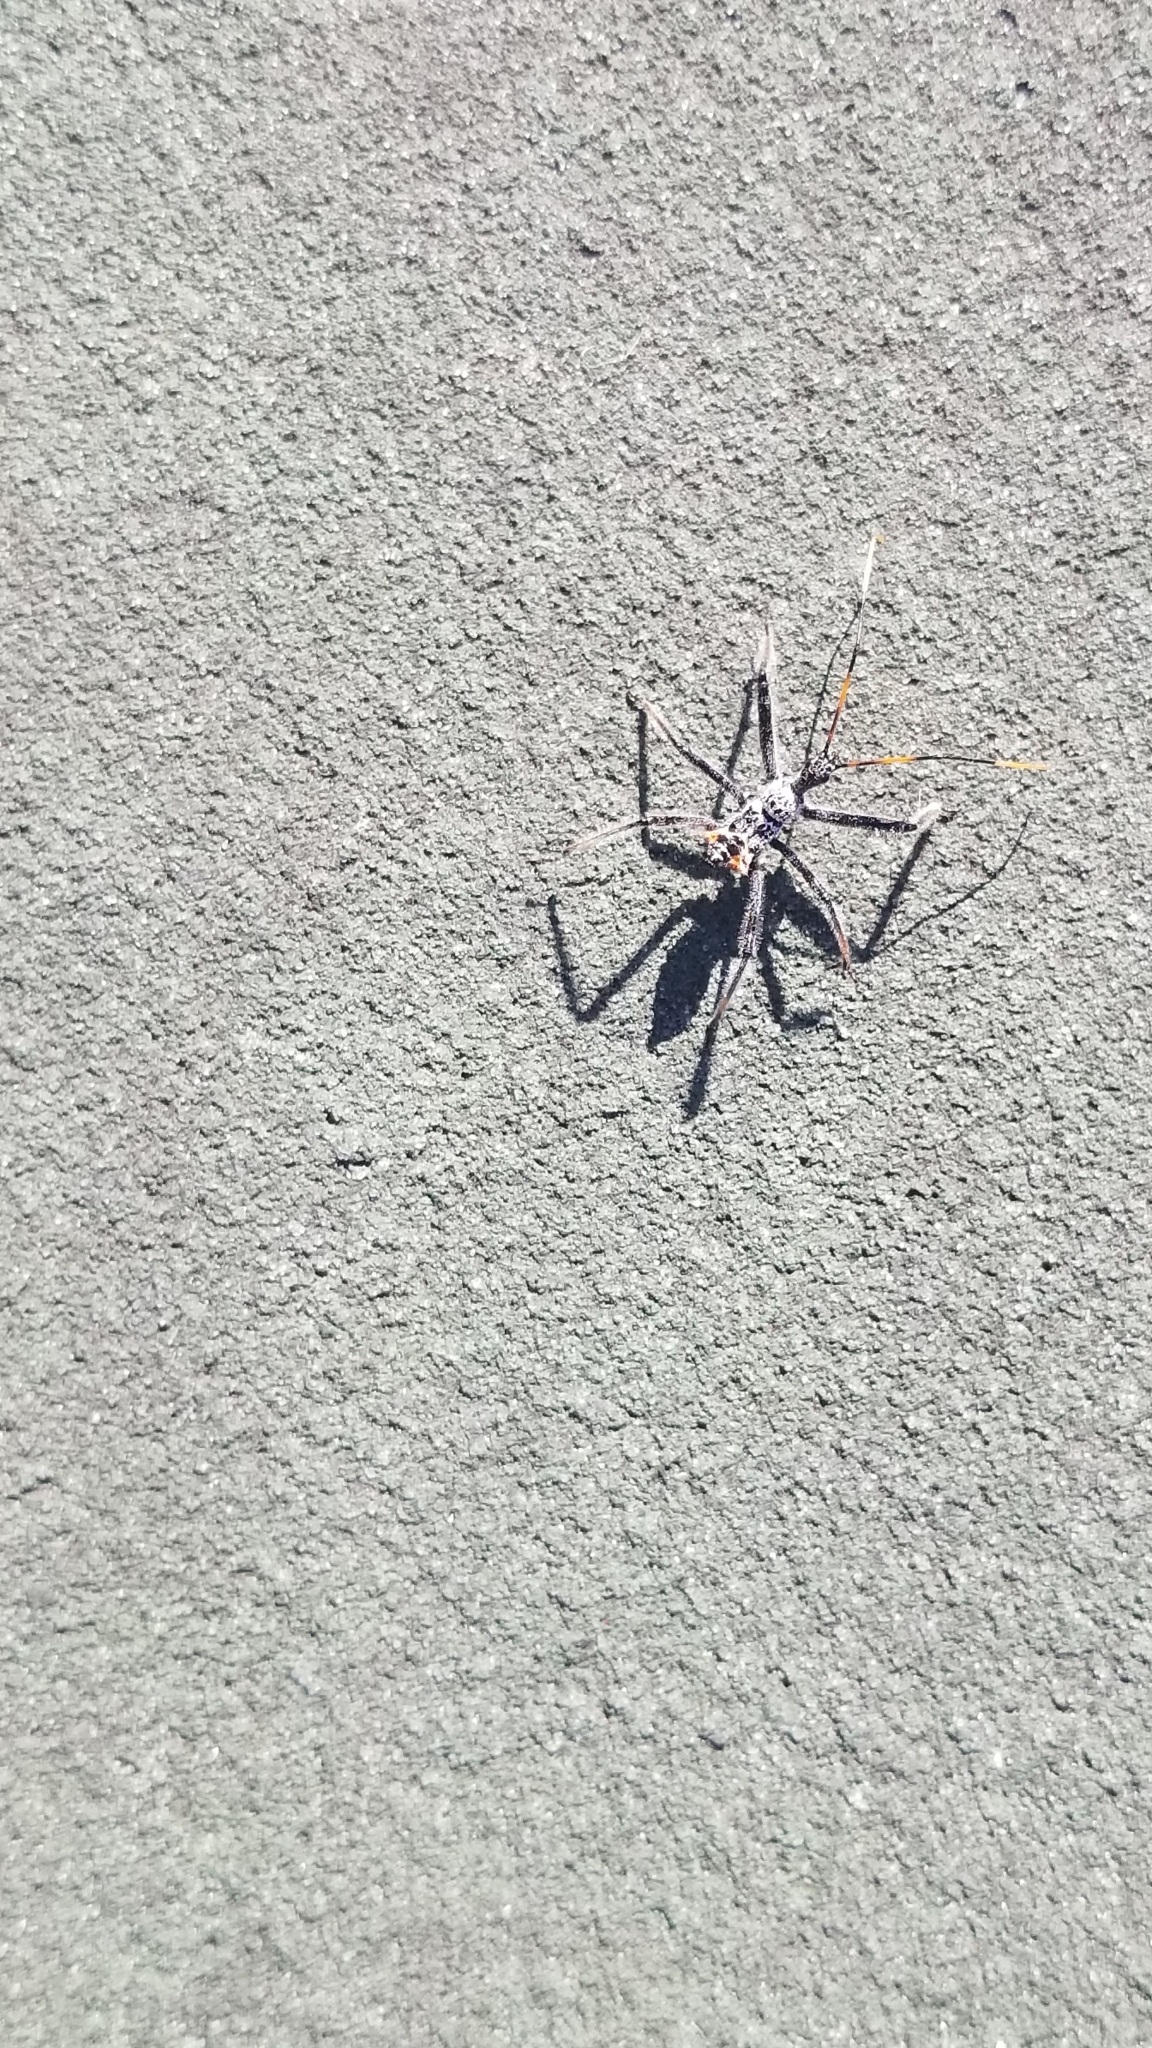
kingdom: Animalia
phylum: Arthropoda
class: Insecta
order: Hemiptera
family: Reduviidae
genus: Arilus
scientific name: Arilus cristatus
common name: North american wheel bug
